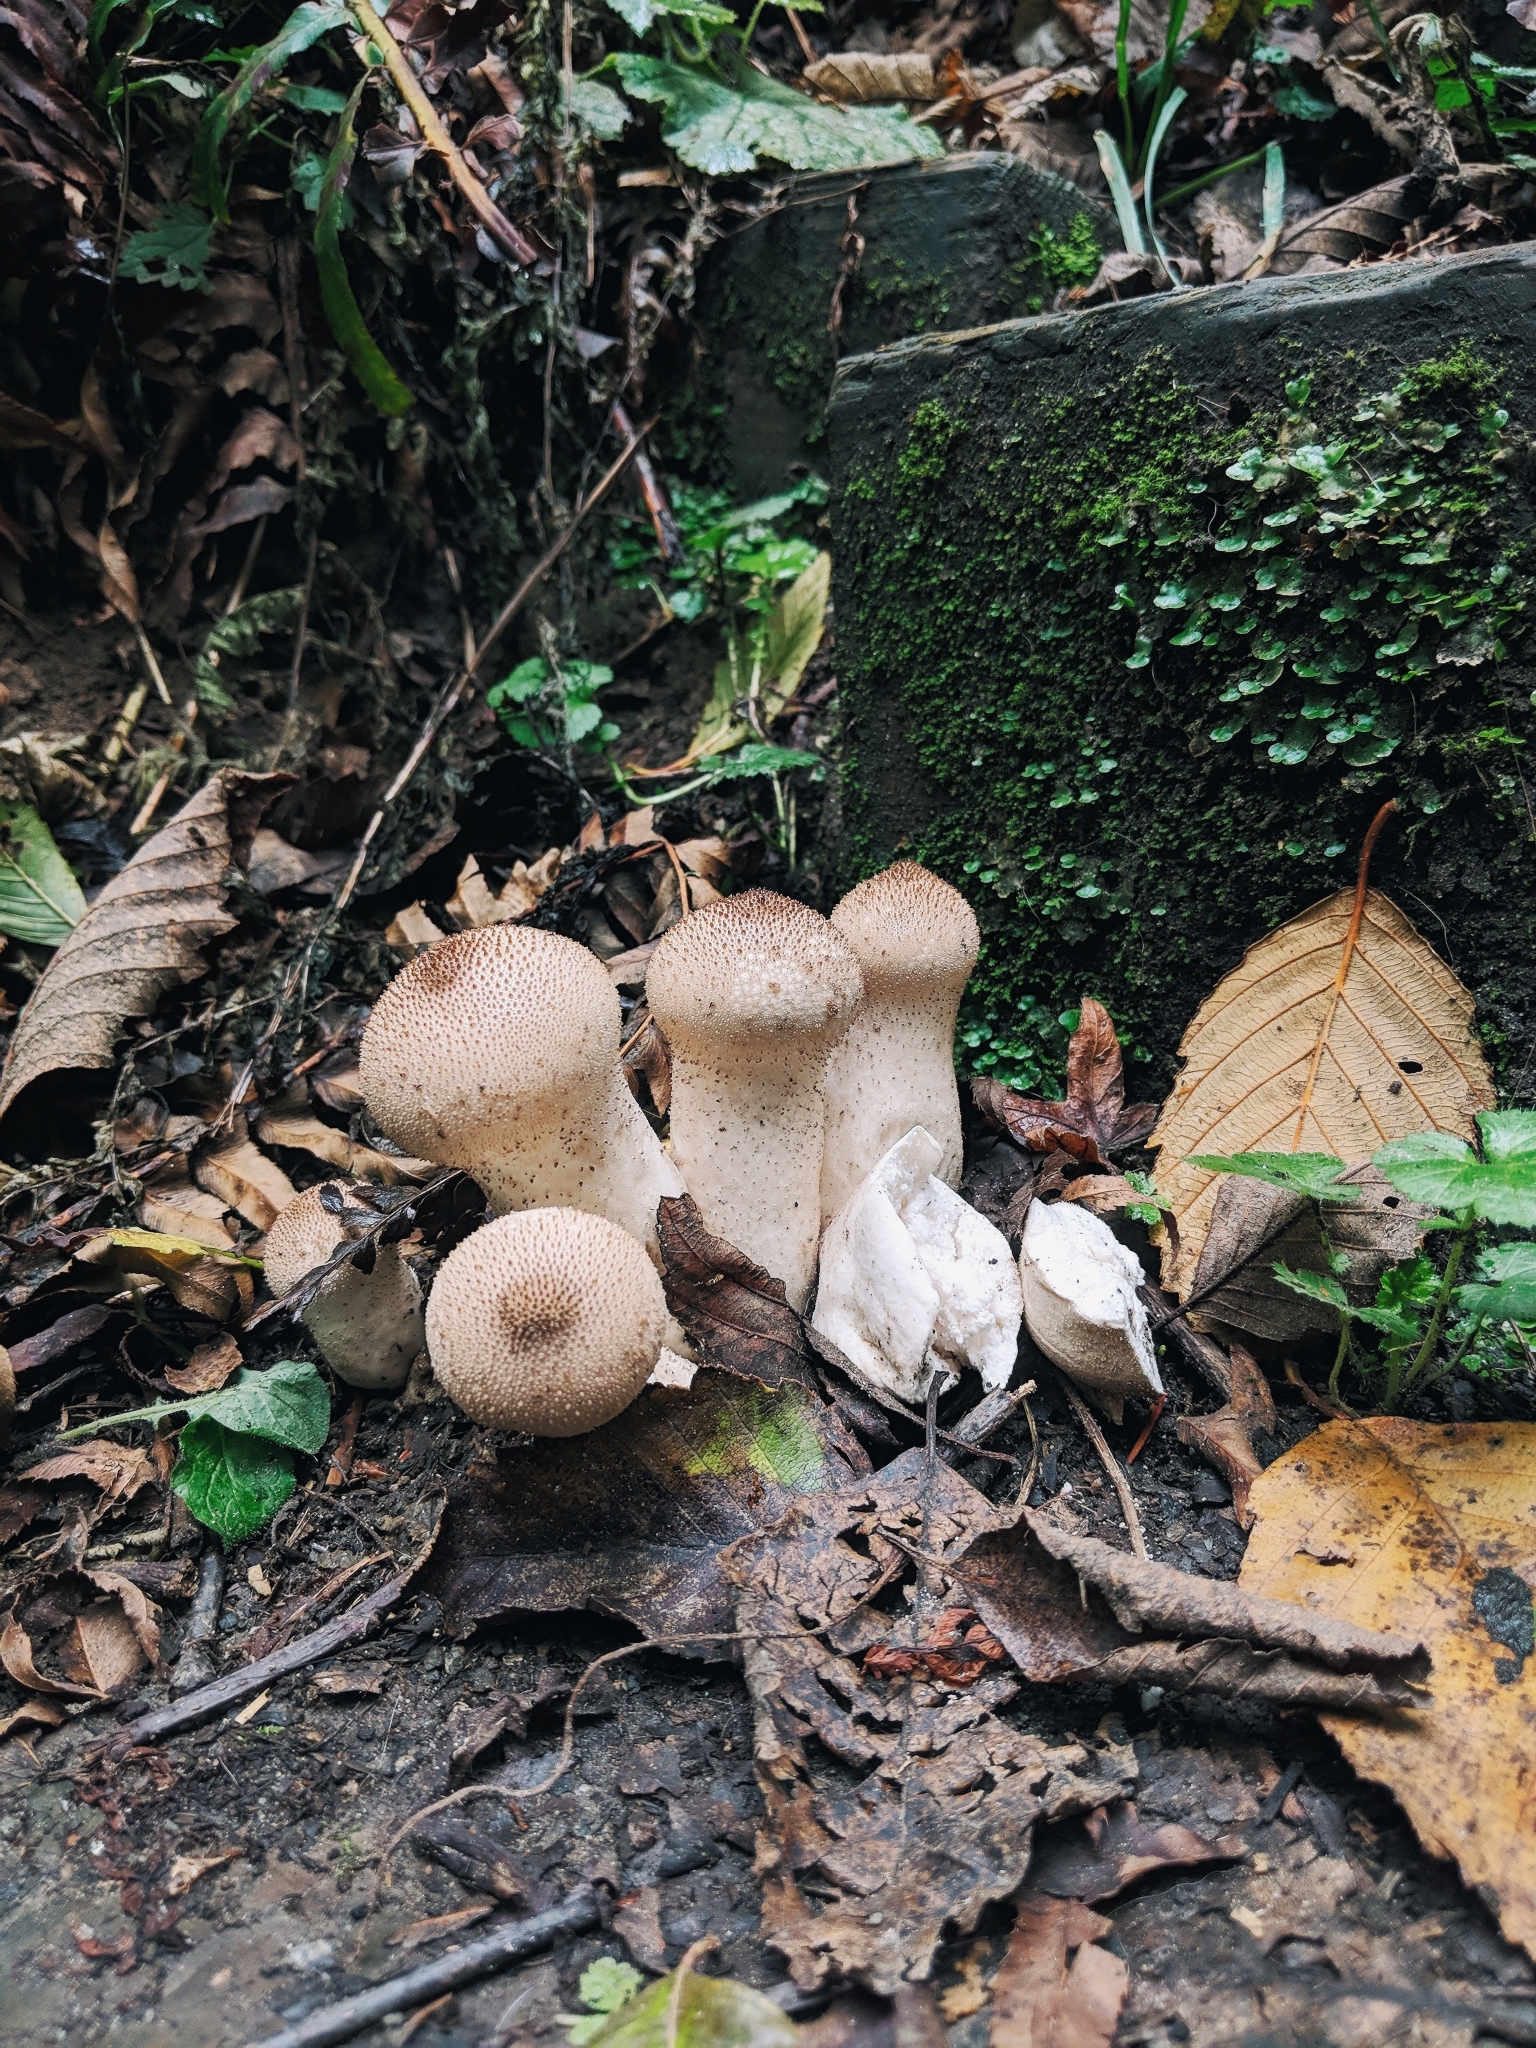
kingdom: Fungi
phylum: Basidiomycota
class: Agaricomycetes
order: Agaricales
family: Lycoperdaceae
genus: Lycoperdon
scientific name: Lycoperdon perlatum
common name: Common puffball
